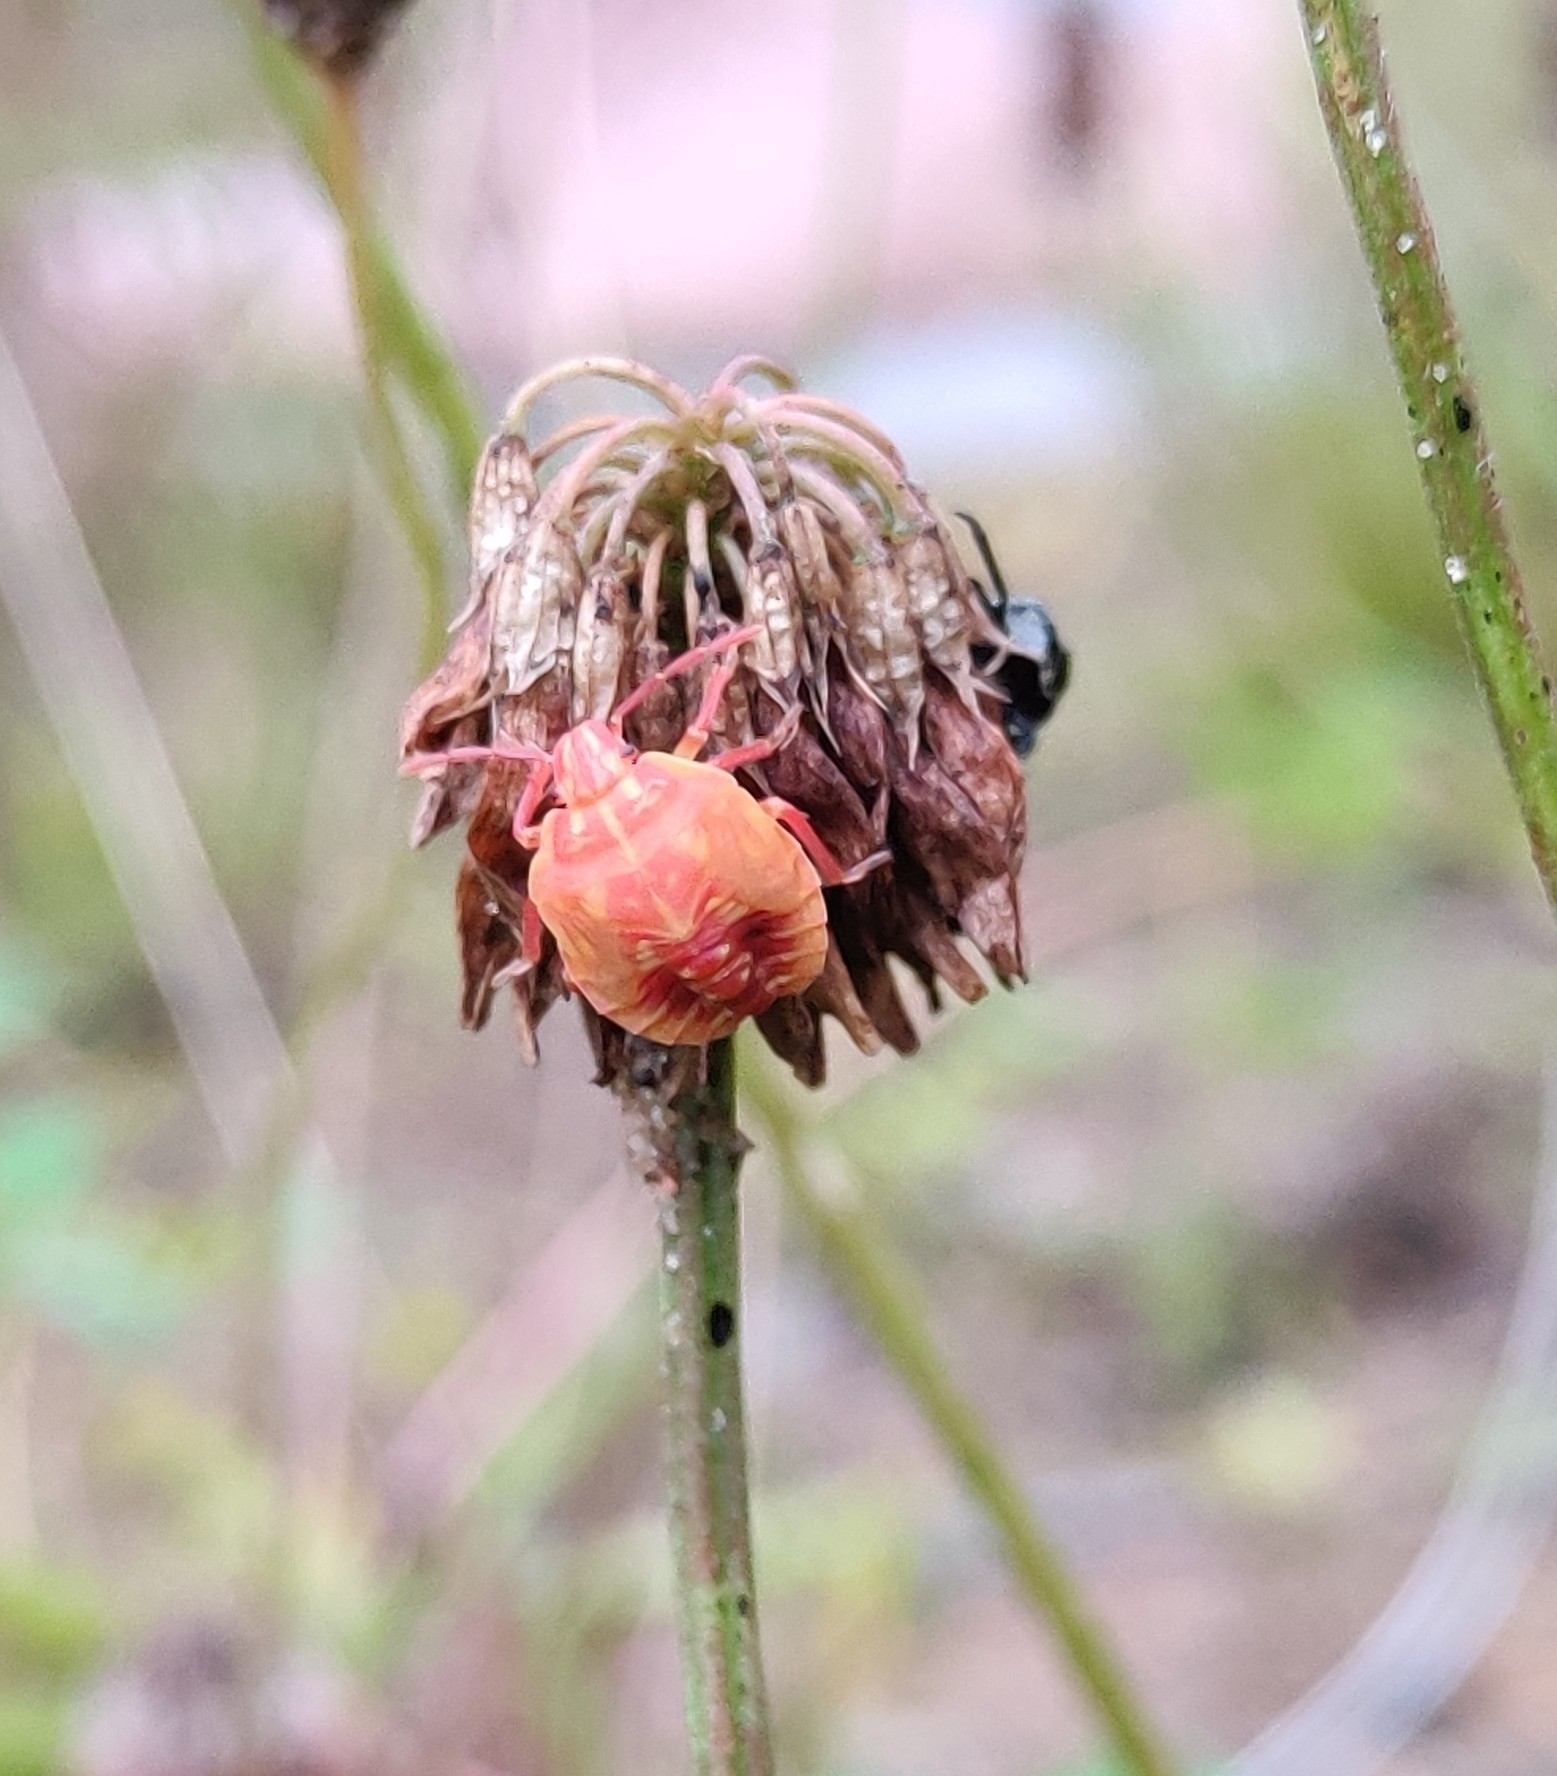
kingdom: Animalia
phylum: Arthropoda
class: Insecta
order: Hemiptera
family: Pentatomidae
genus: Carpocoris
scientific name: Carpocoris purpureipennis
